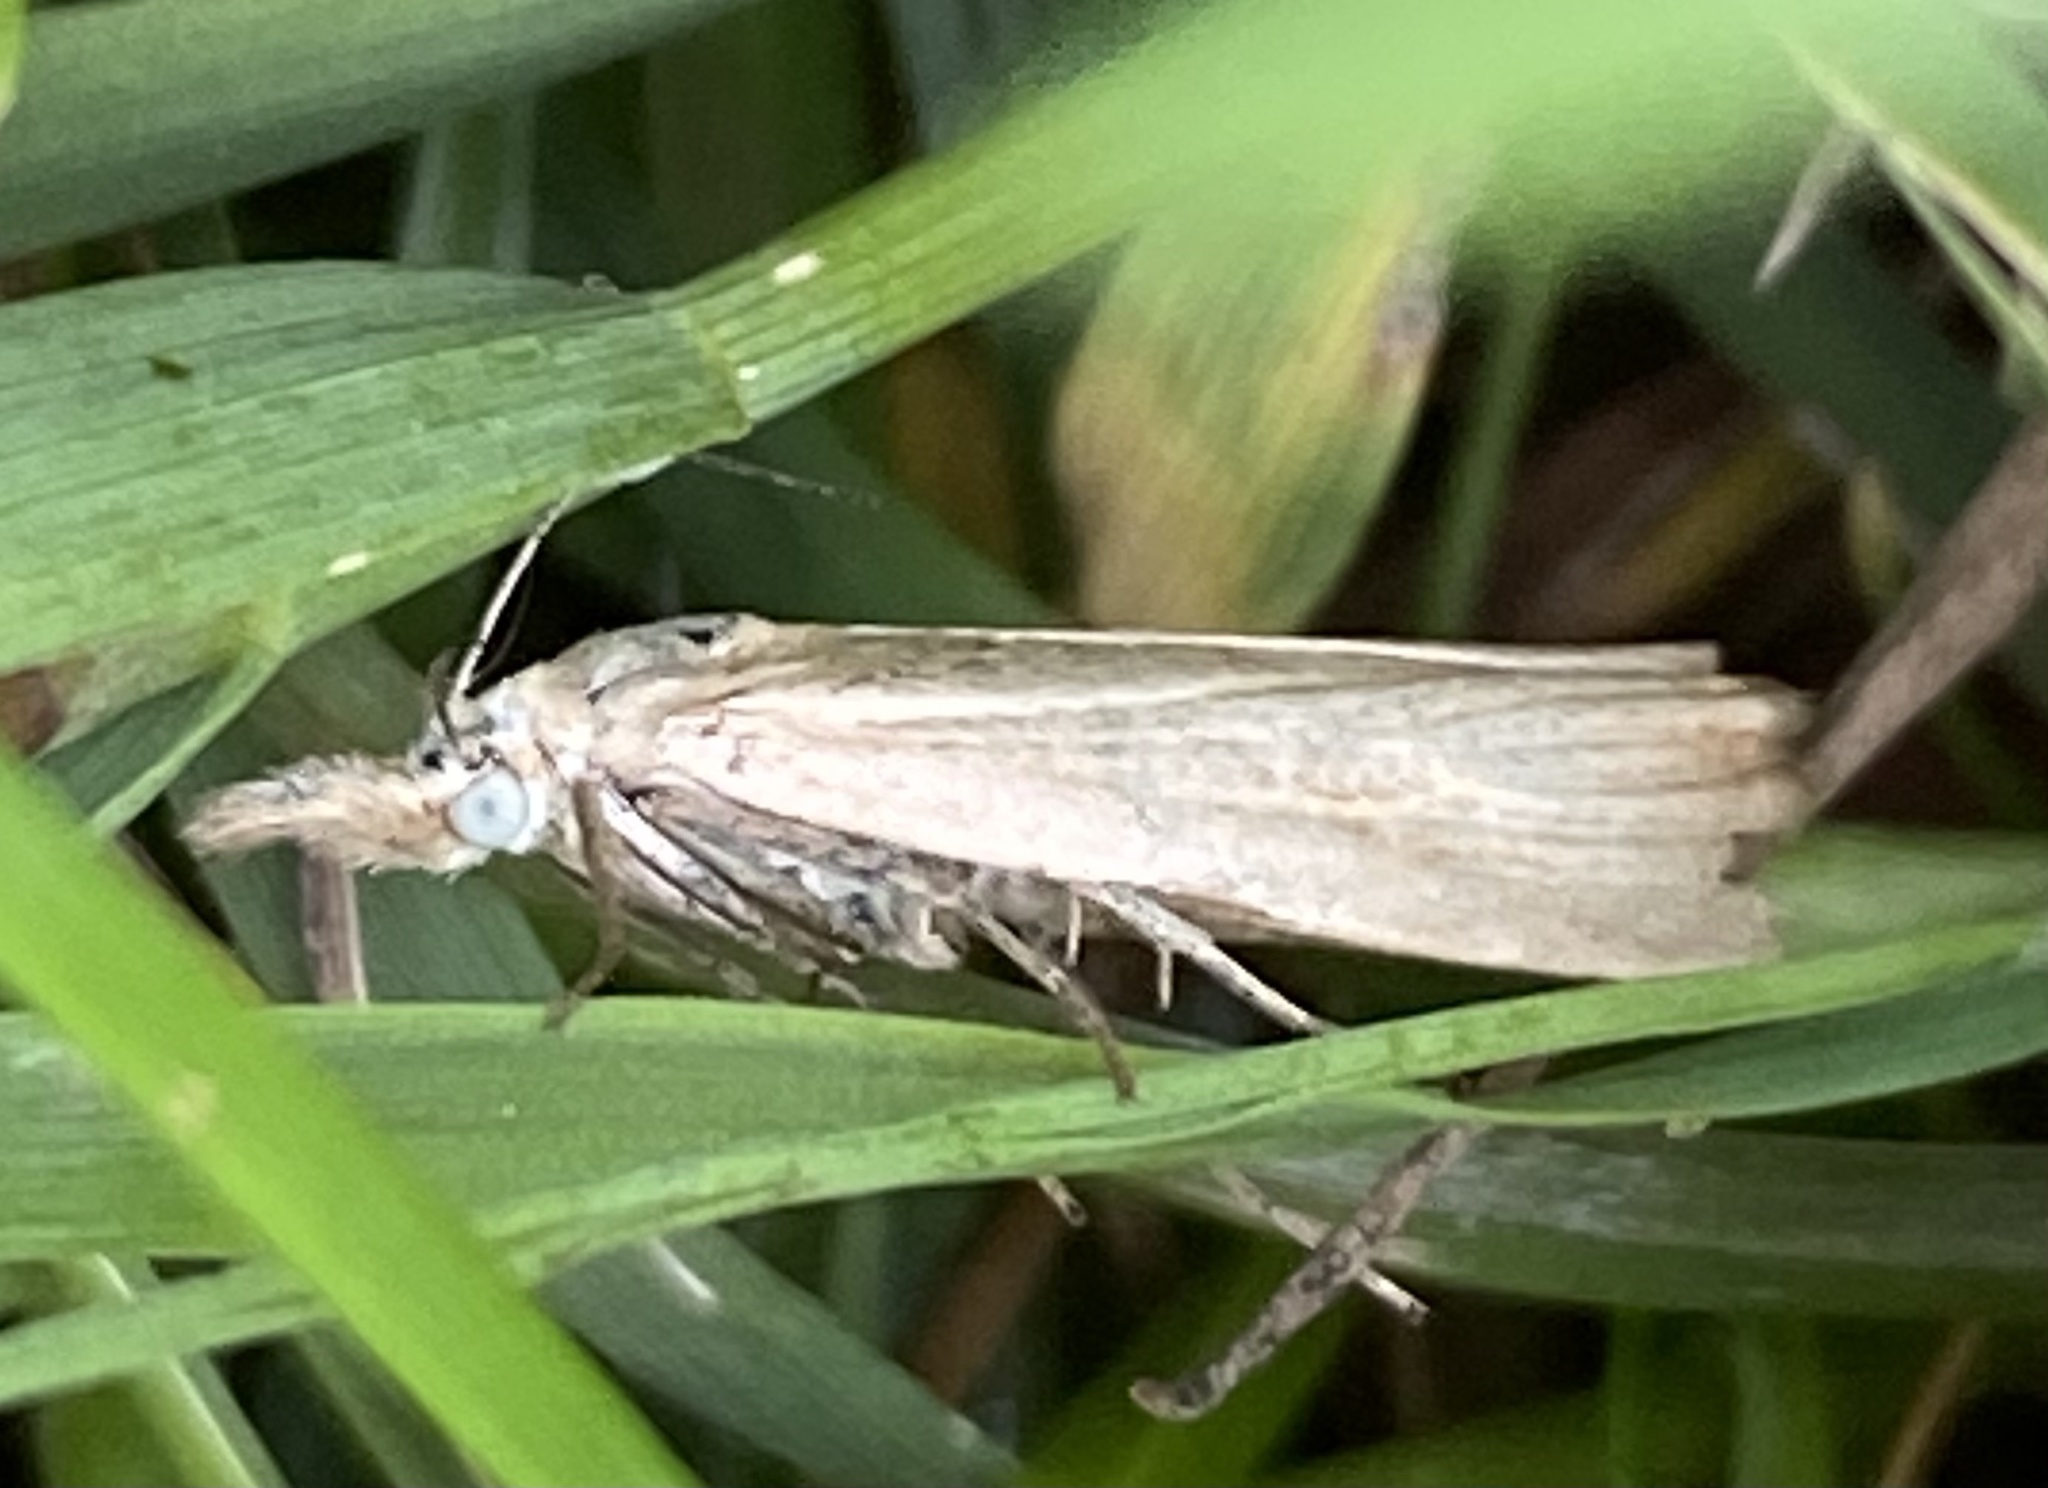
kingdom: Animalia
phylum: Arthropoda
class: Insecta
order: Lepidoptera
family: Crambidae
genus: Agriphila
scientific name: Agriphila straminella
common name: Straw grass-veneer
